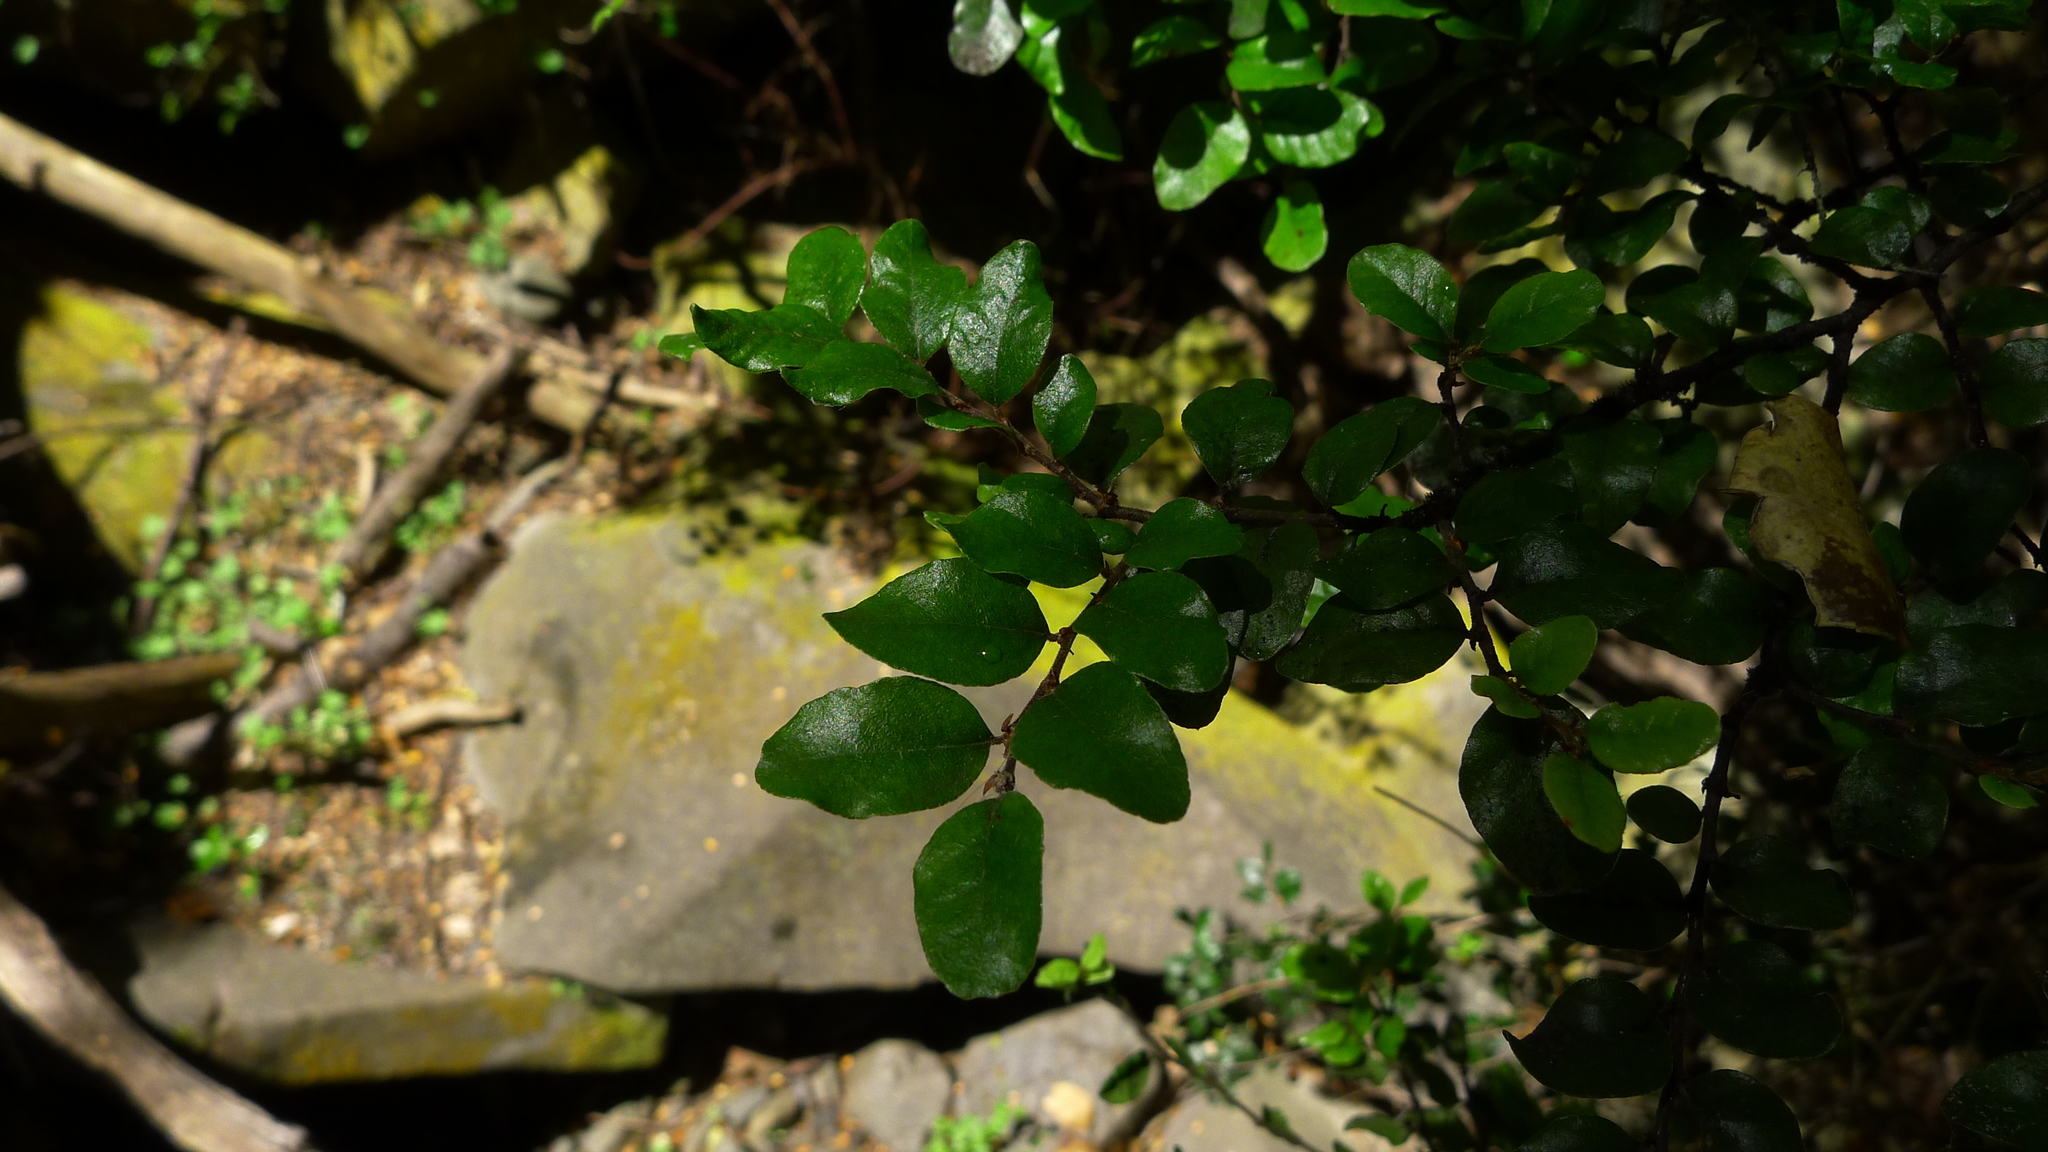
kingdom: Plantae
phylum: Tracheophyta
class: Magnoliopsida
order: Fagales
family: Nothofagaceae
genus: Nothofagus
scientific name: Nothofagus solandri
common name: Black beech
